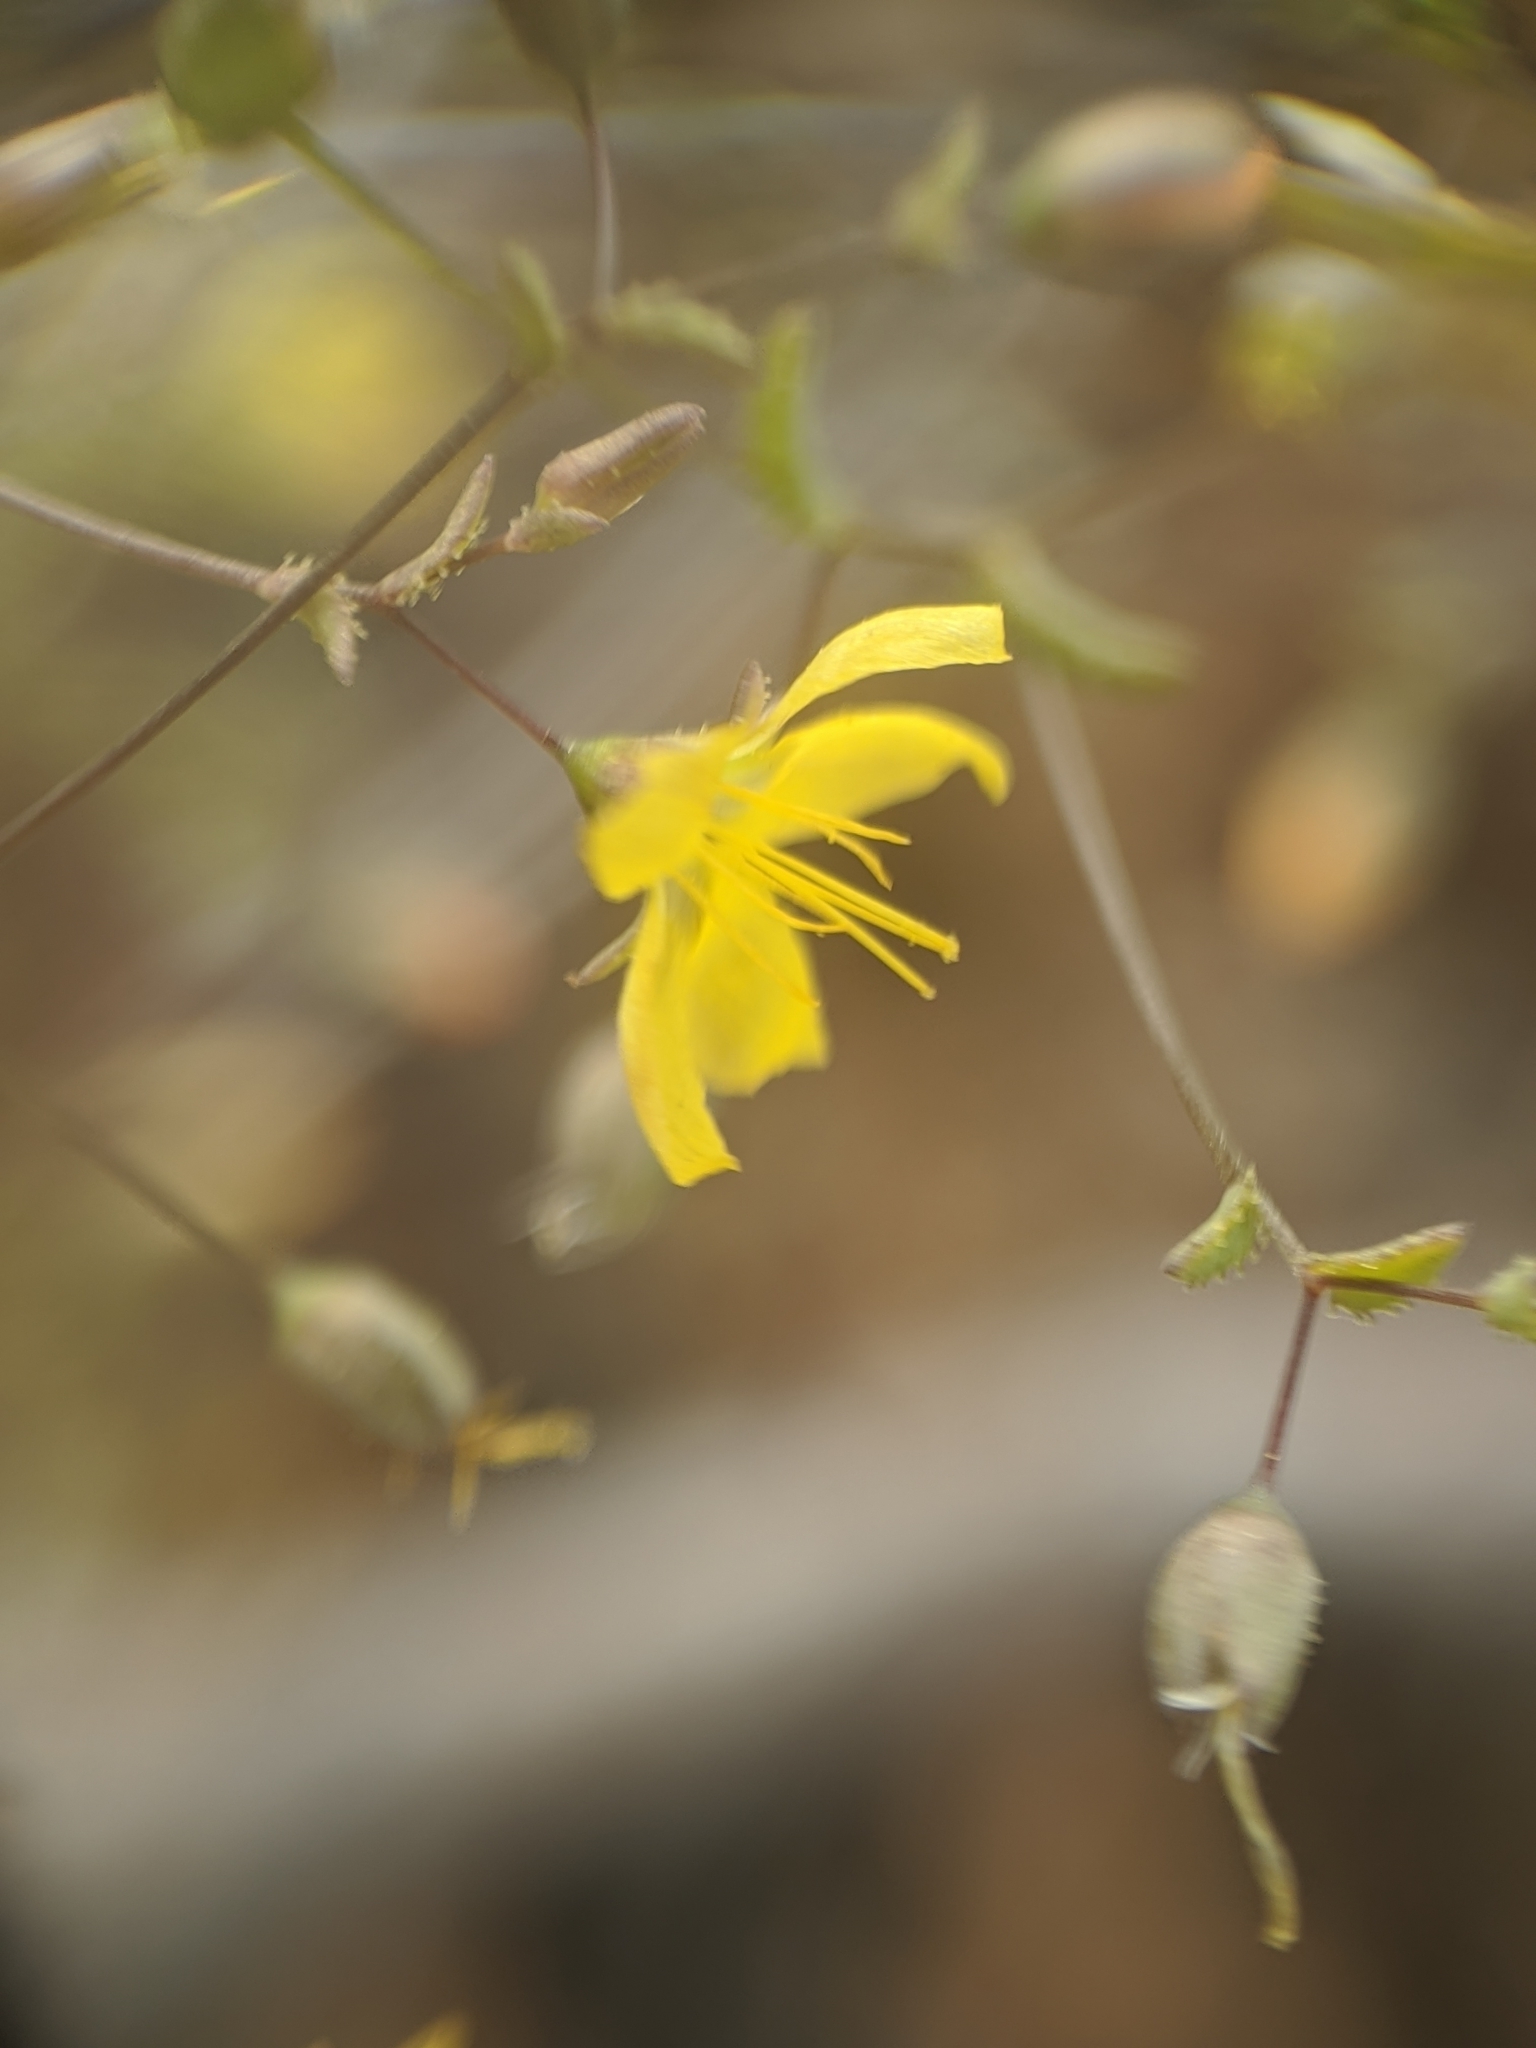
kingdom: Plantae
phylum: Tracheophyta
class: Magnoliopsida
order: Malpighiales
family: Linaceae
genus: Hesperolinon
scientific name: Hesperolinon adenophyllum
